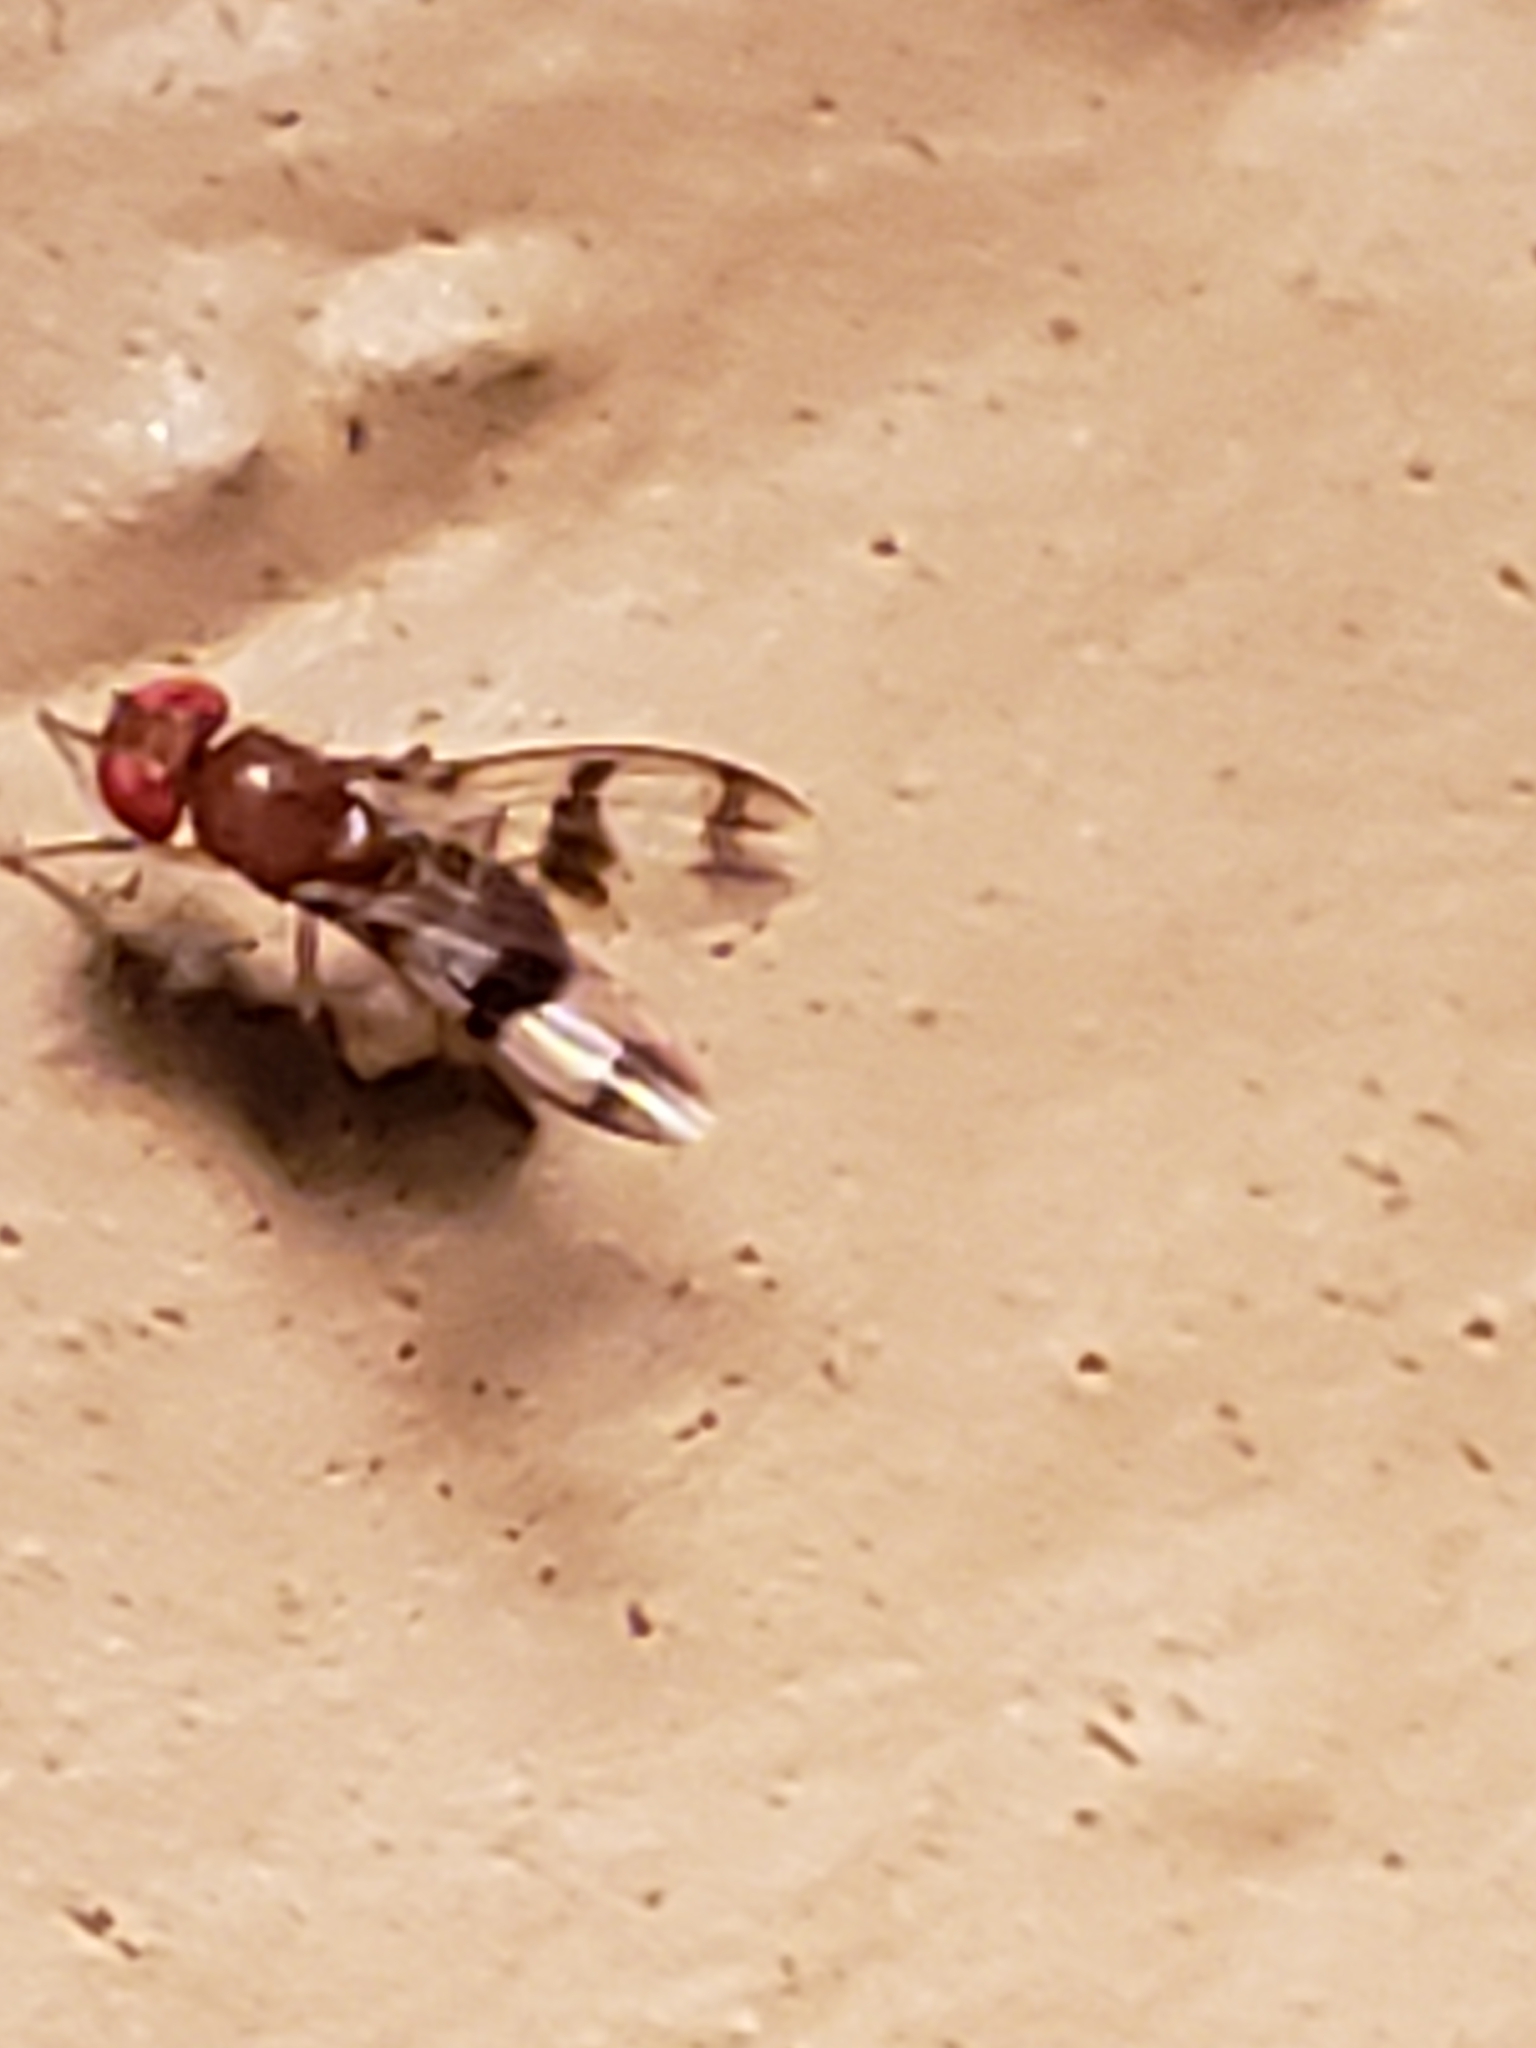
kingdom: Animalia
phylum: Arthropoda
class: Insecta
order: Diptera
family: Drosophilidae
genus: Chymomyza
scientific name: Chymomyza amoena
